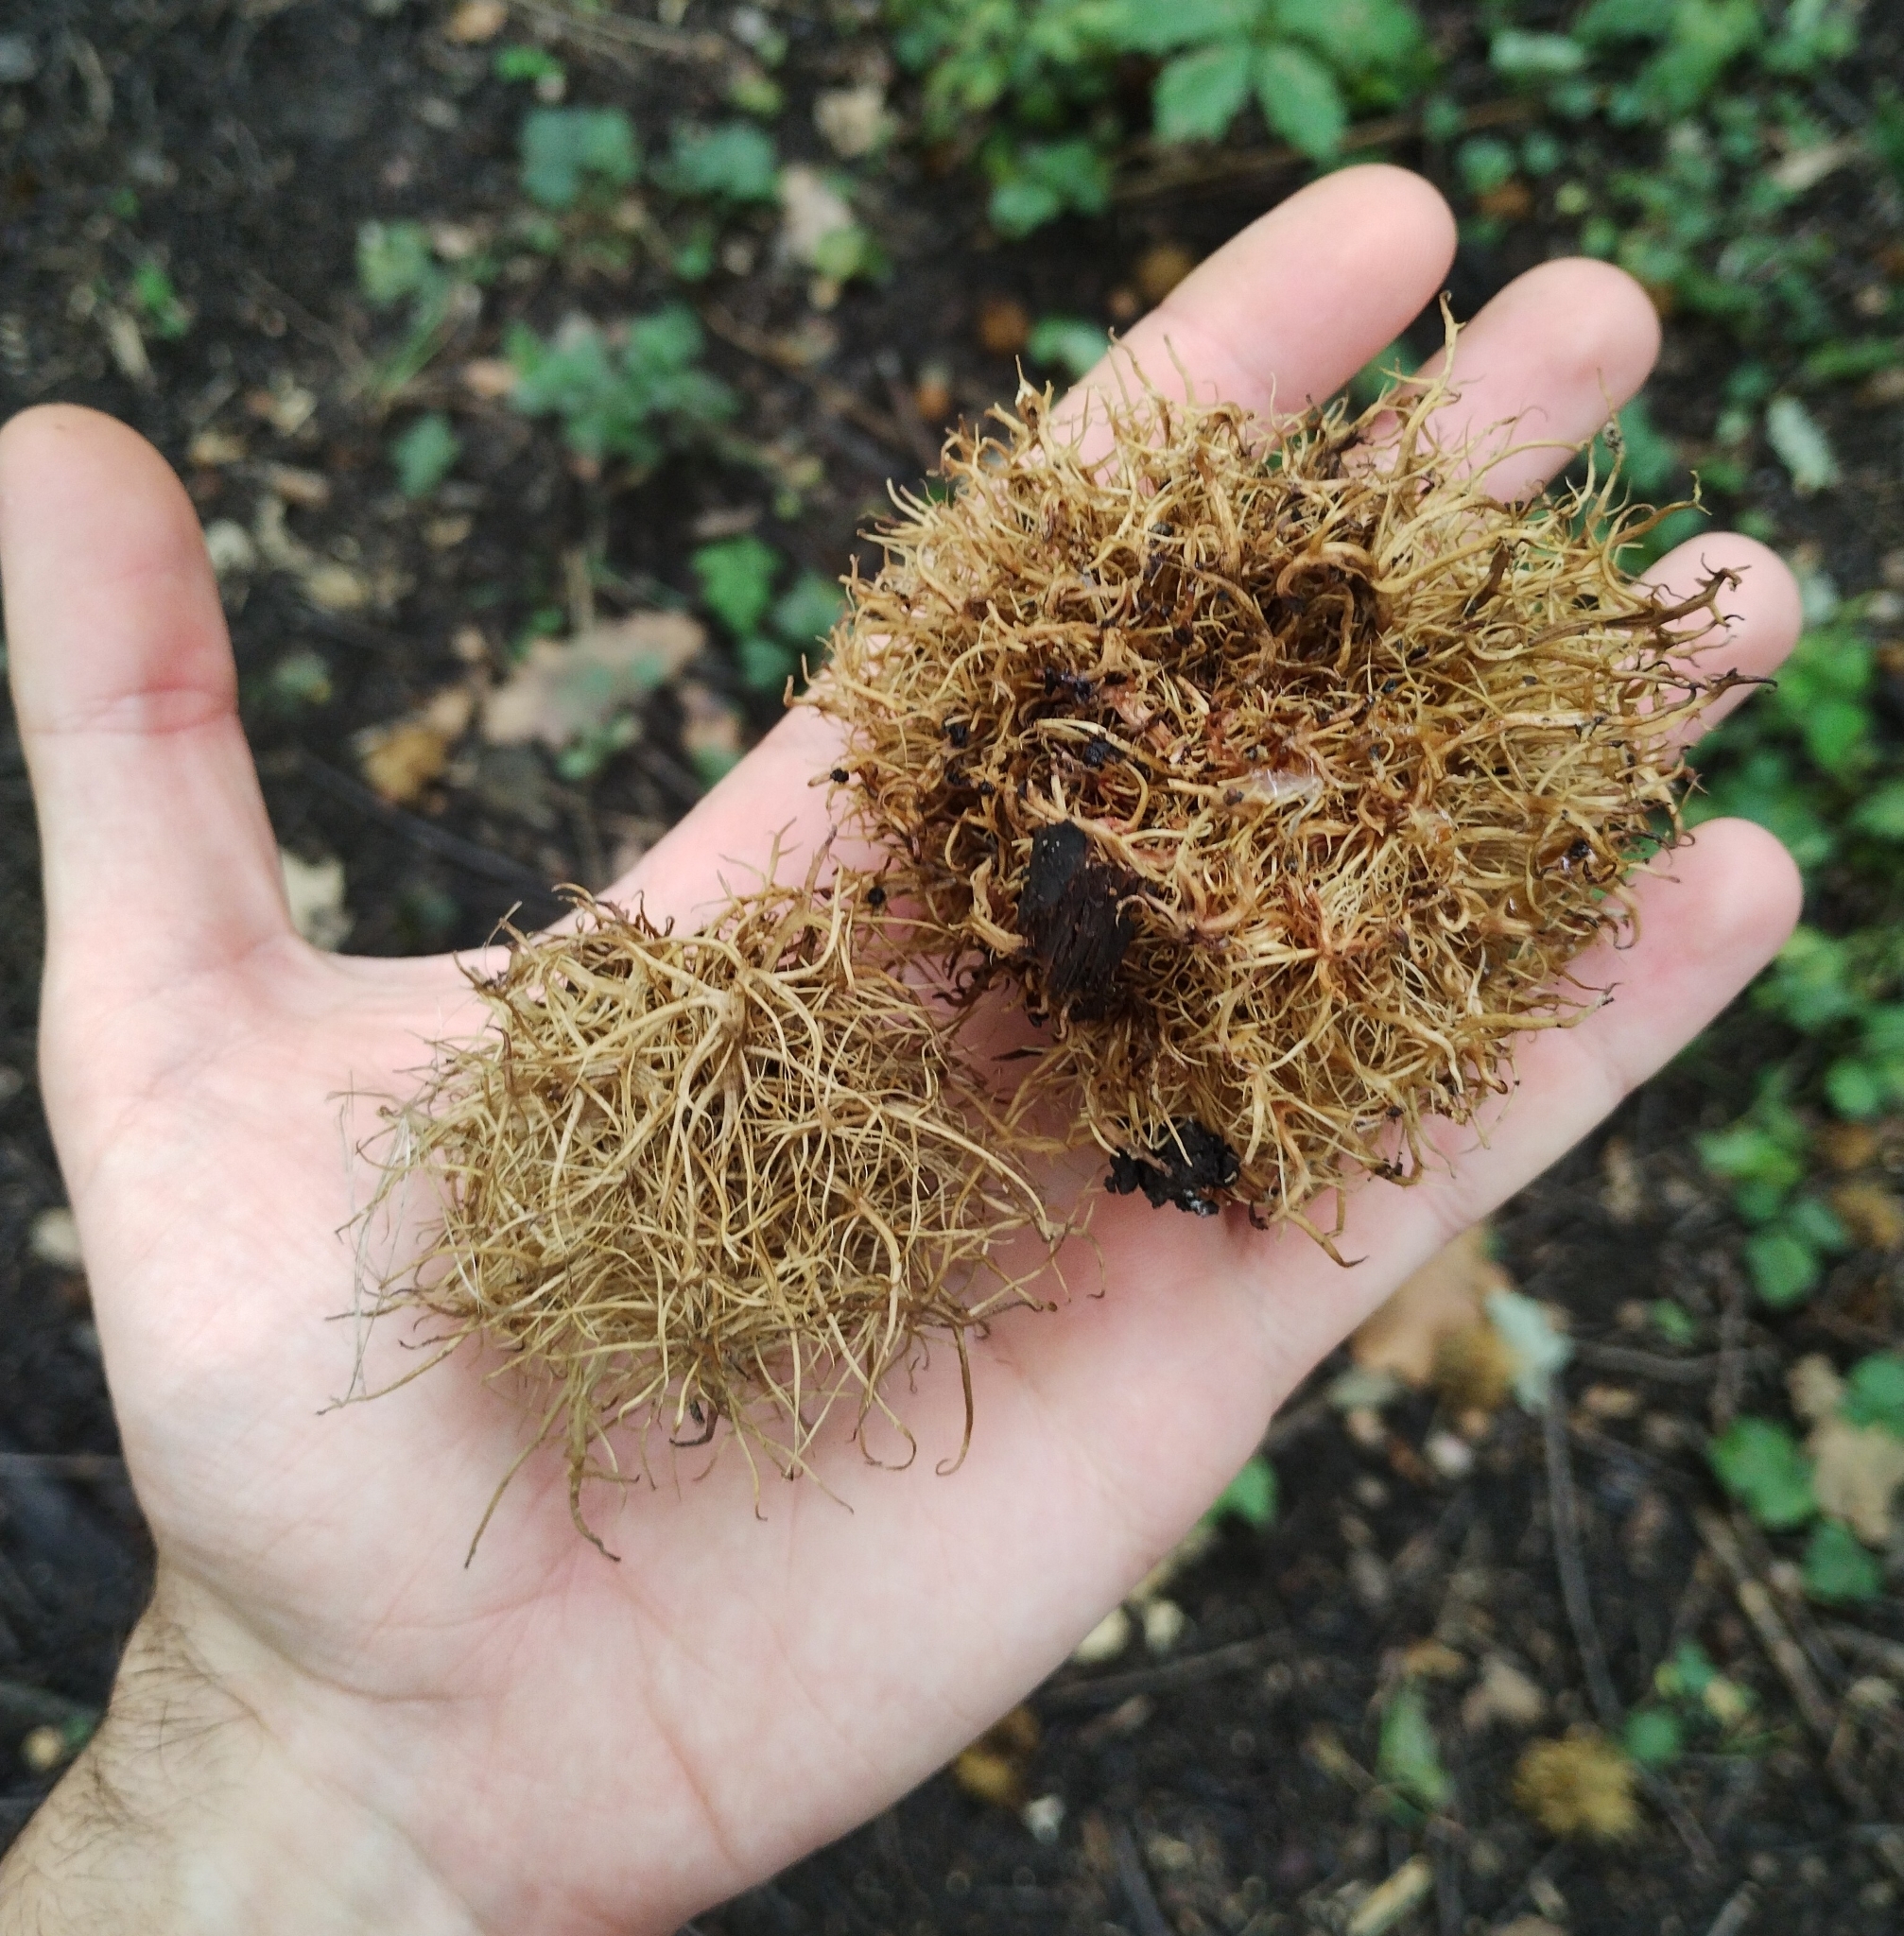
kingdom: Animalia
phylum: Arthropoda
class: Insecta
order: Hymenoptera
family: Cynipidae
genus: Andricus
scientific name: Andricus caputmedusae
